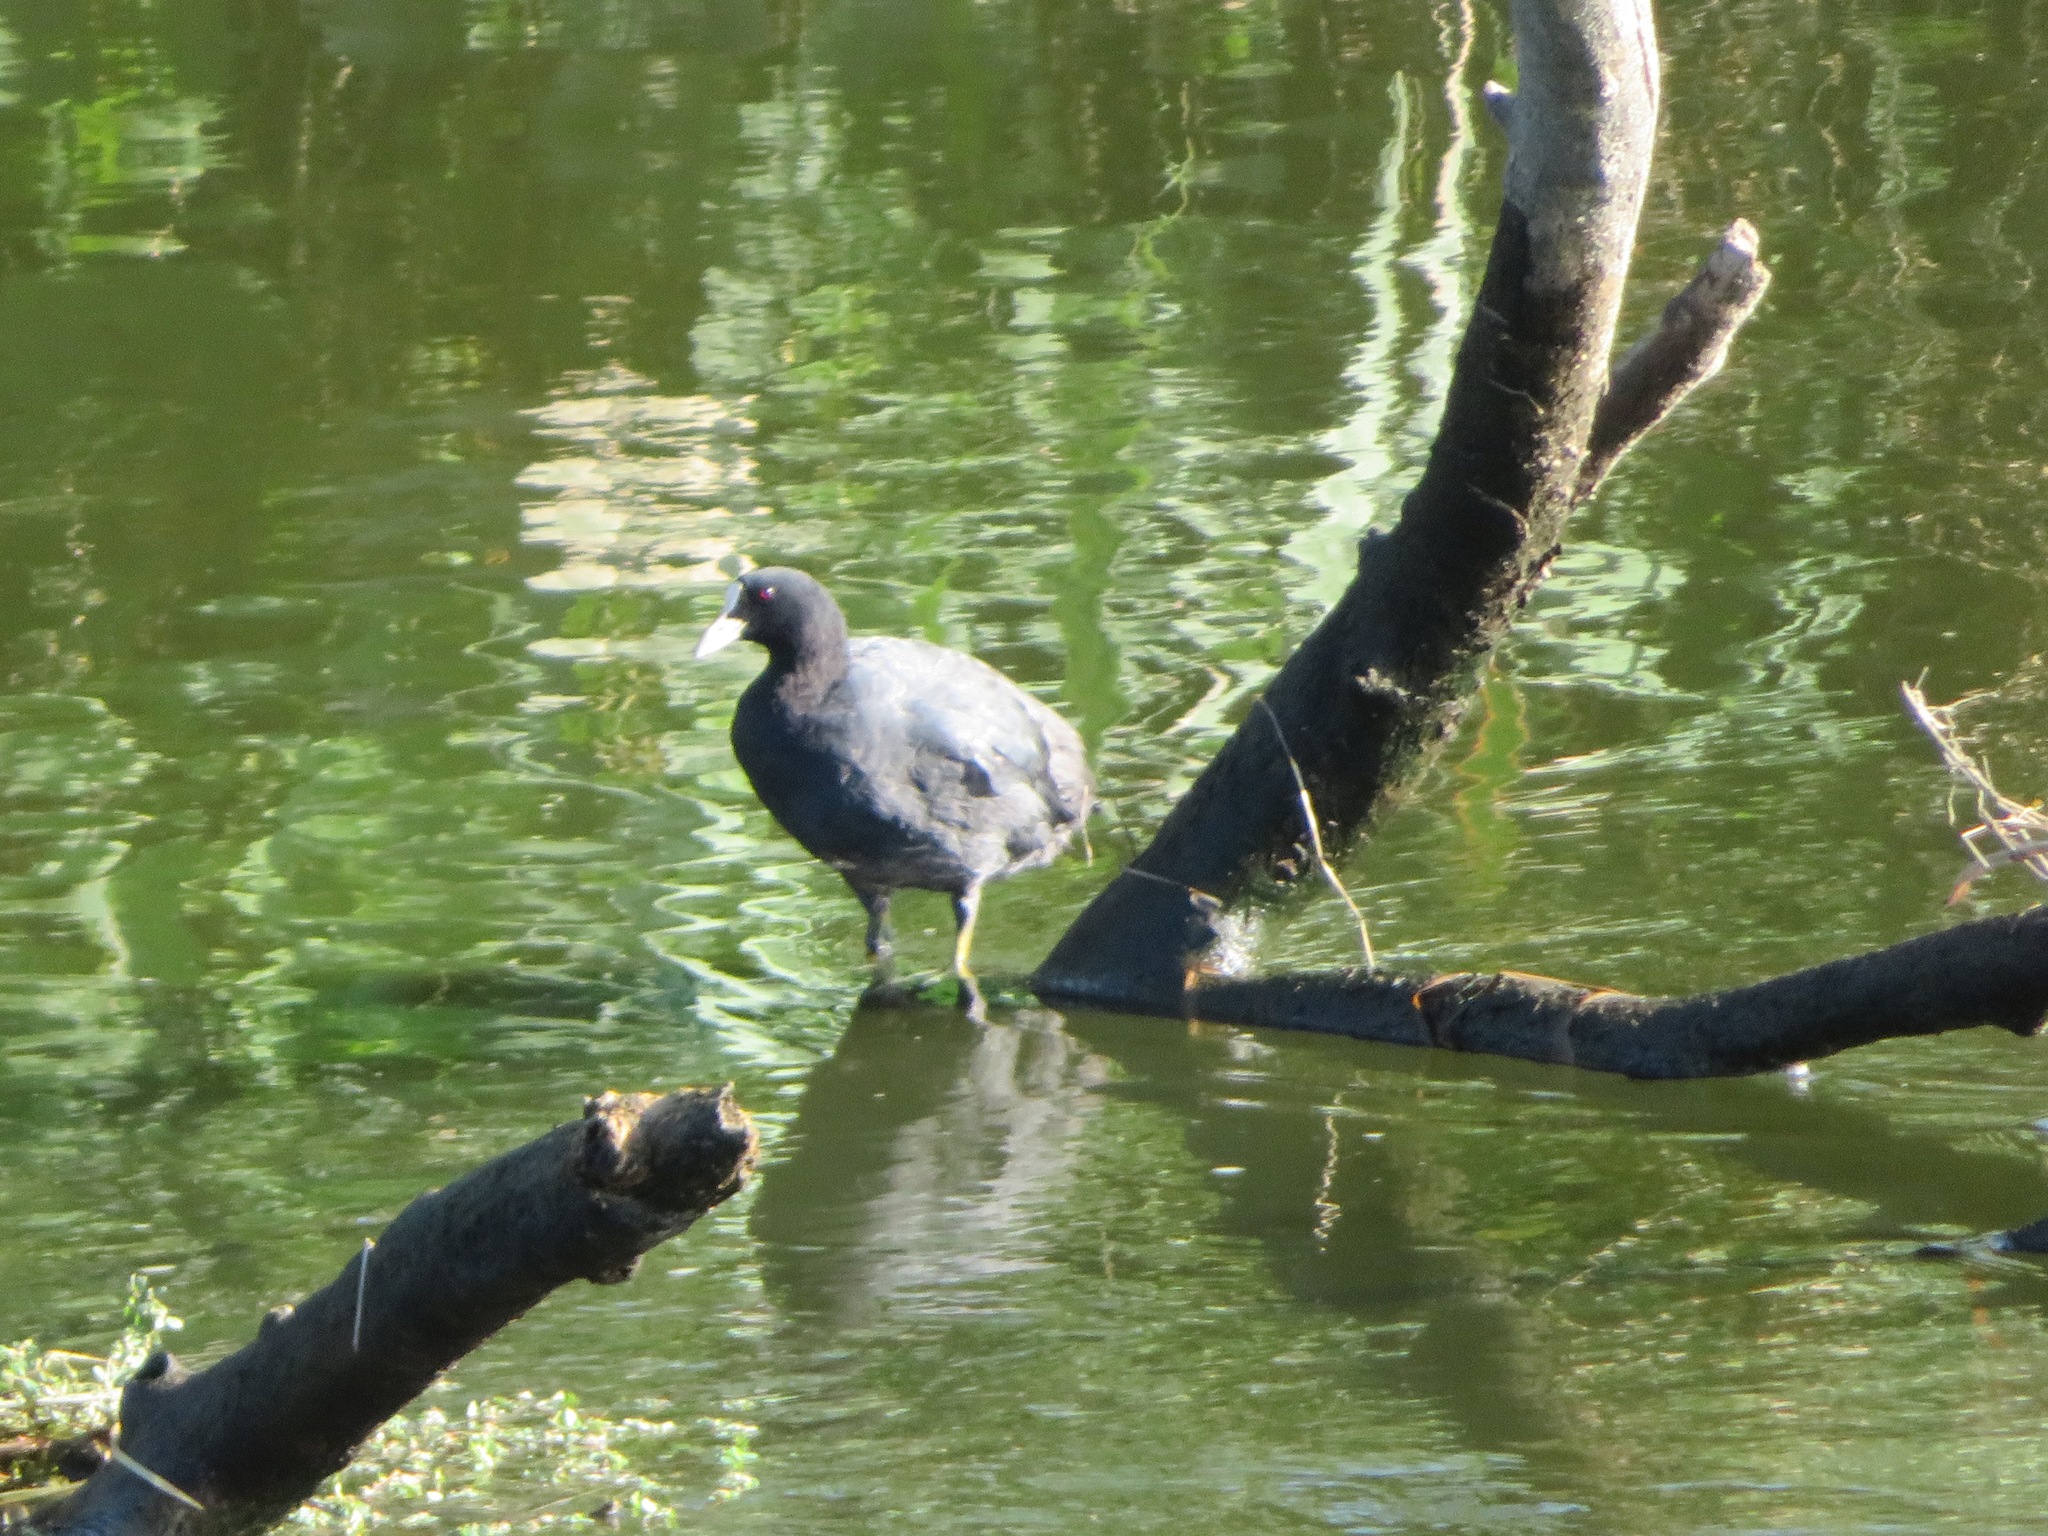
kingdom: Animalia
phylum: Chordata
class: Aves
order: Gruiformes
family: Rallidae
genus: Fulica
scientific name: Fulica atra
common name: Eurasian coot
